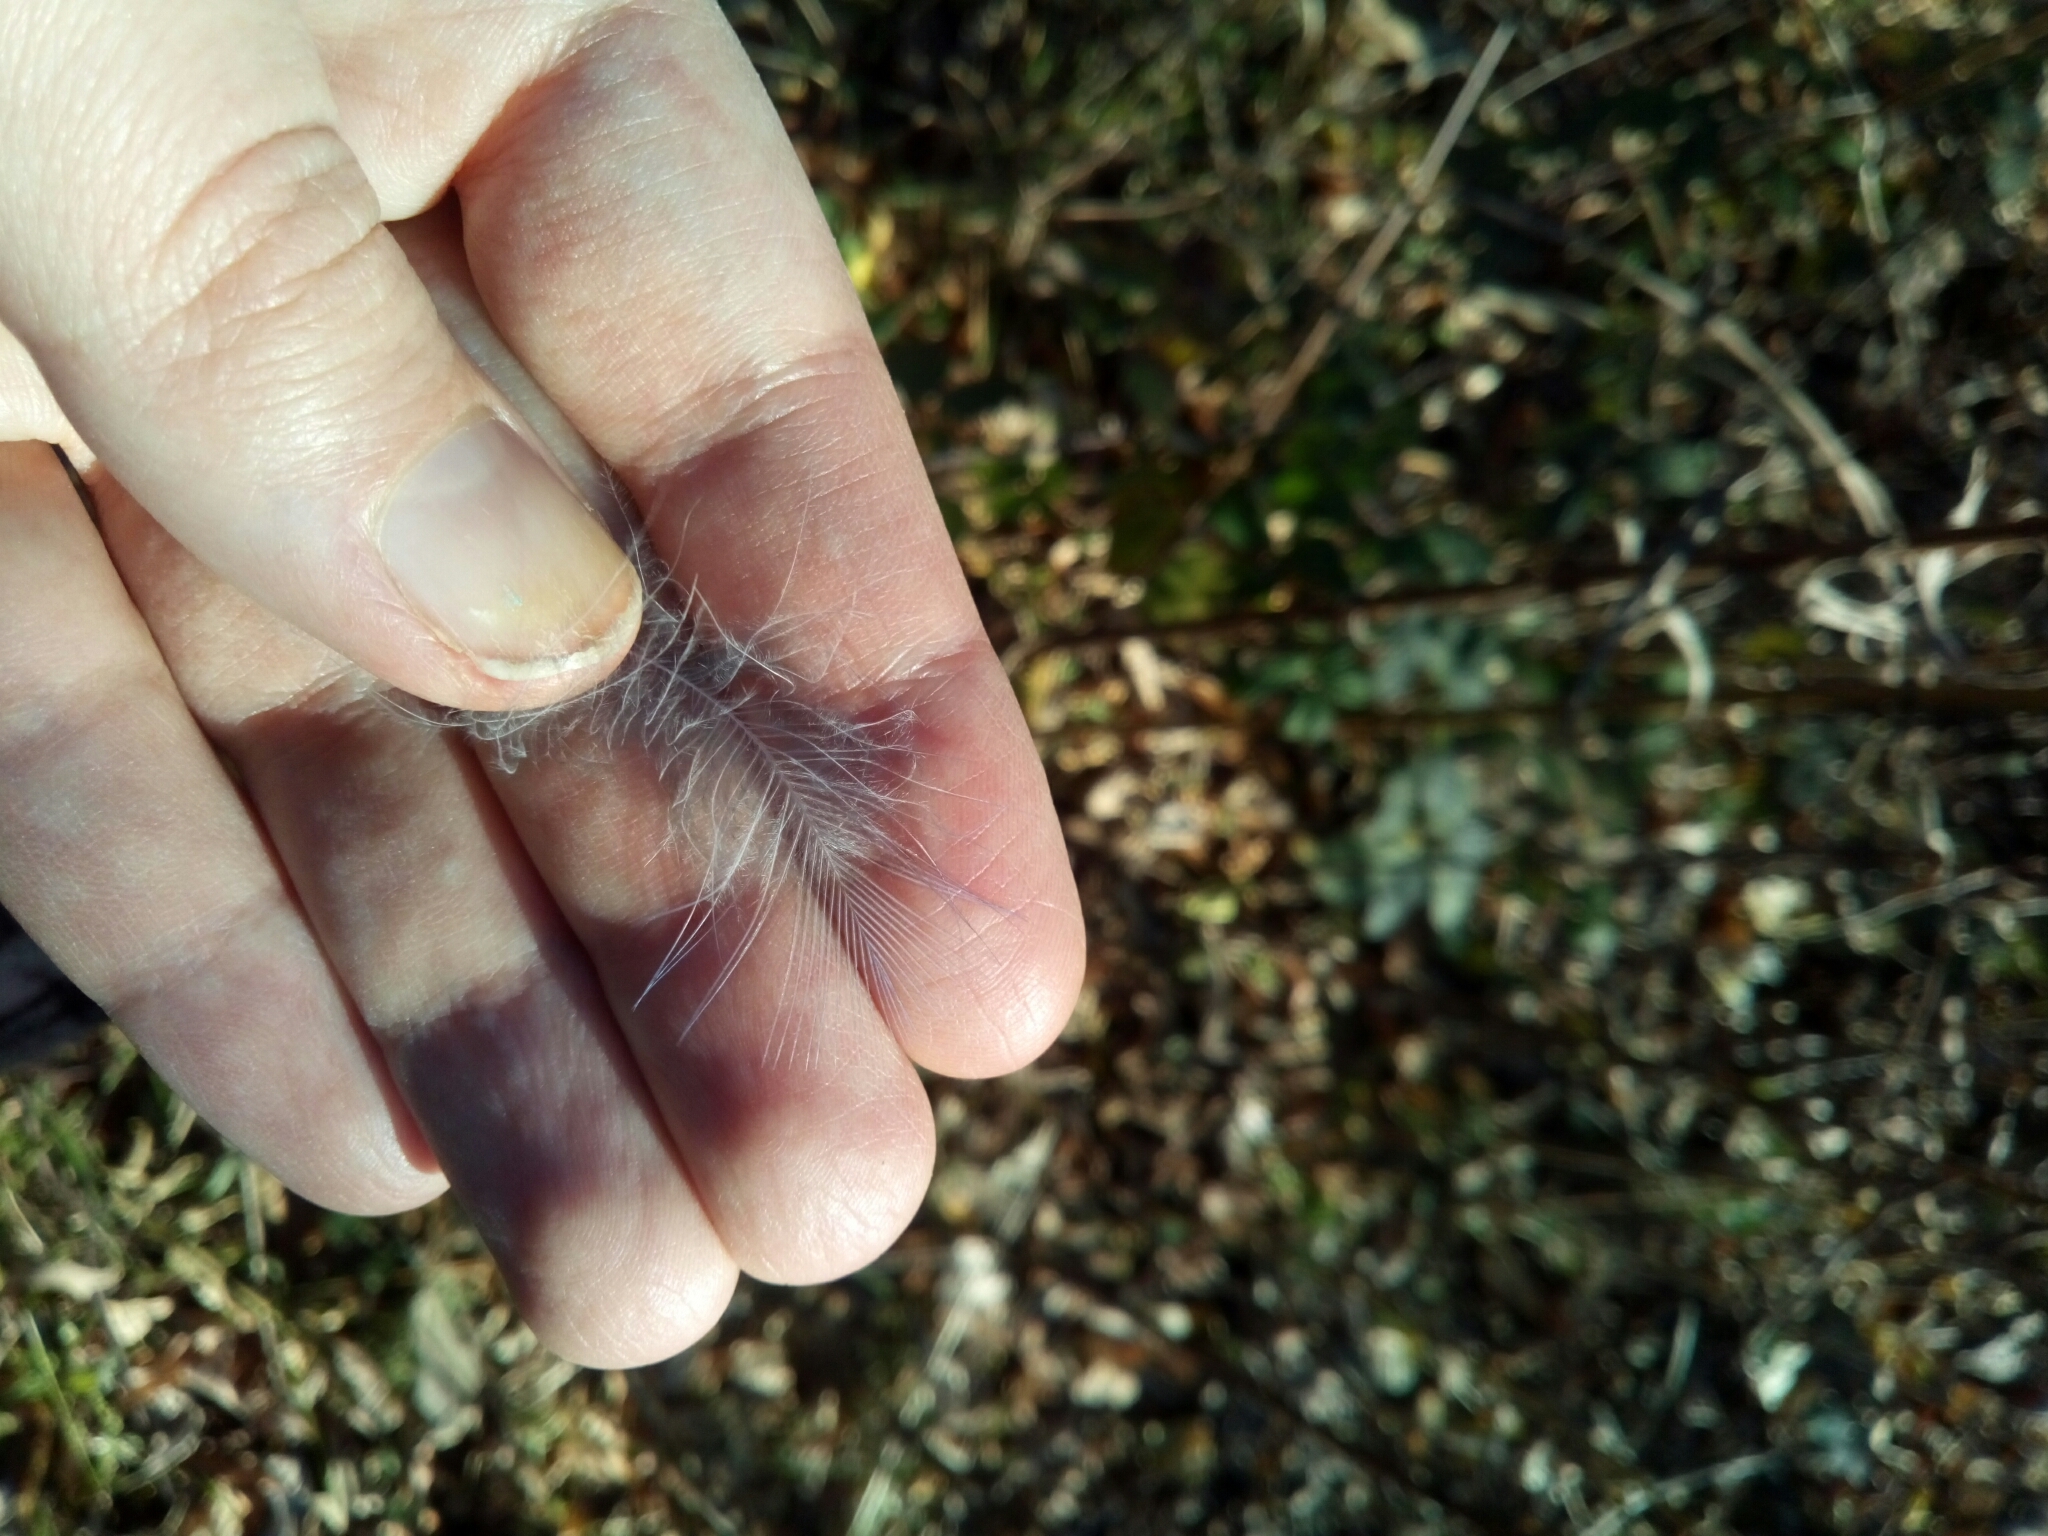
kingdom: Animalia
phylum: Chordata
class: Aves
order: Passeriformes
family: Corvidae
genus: Cyanocitta
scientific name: Cyanocitta cristata
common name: Blue jay
